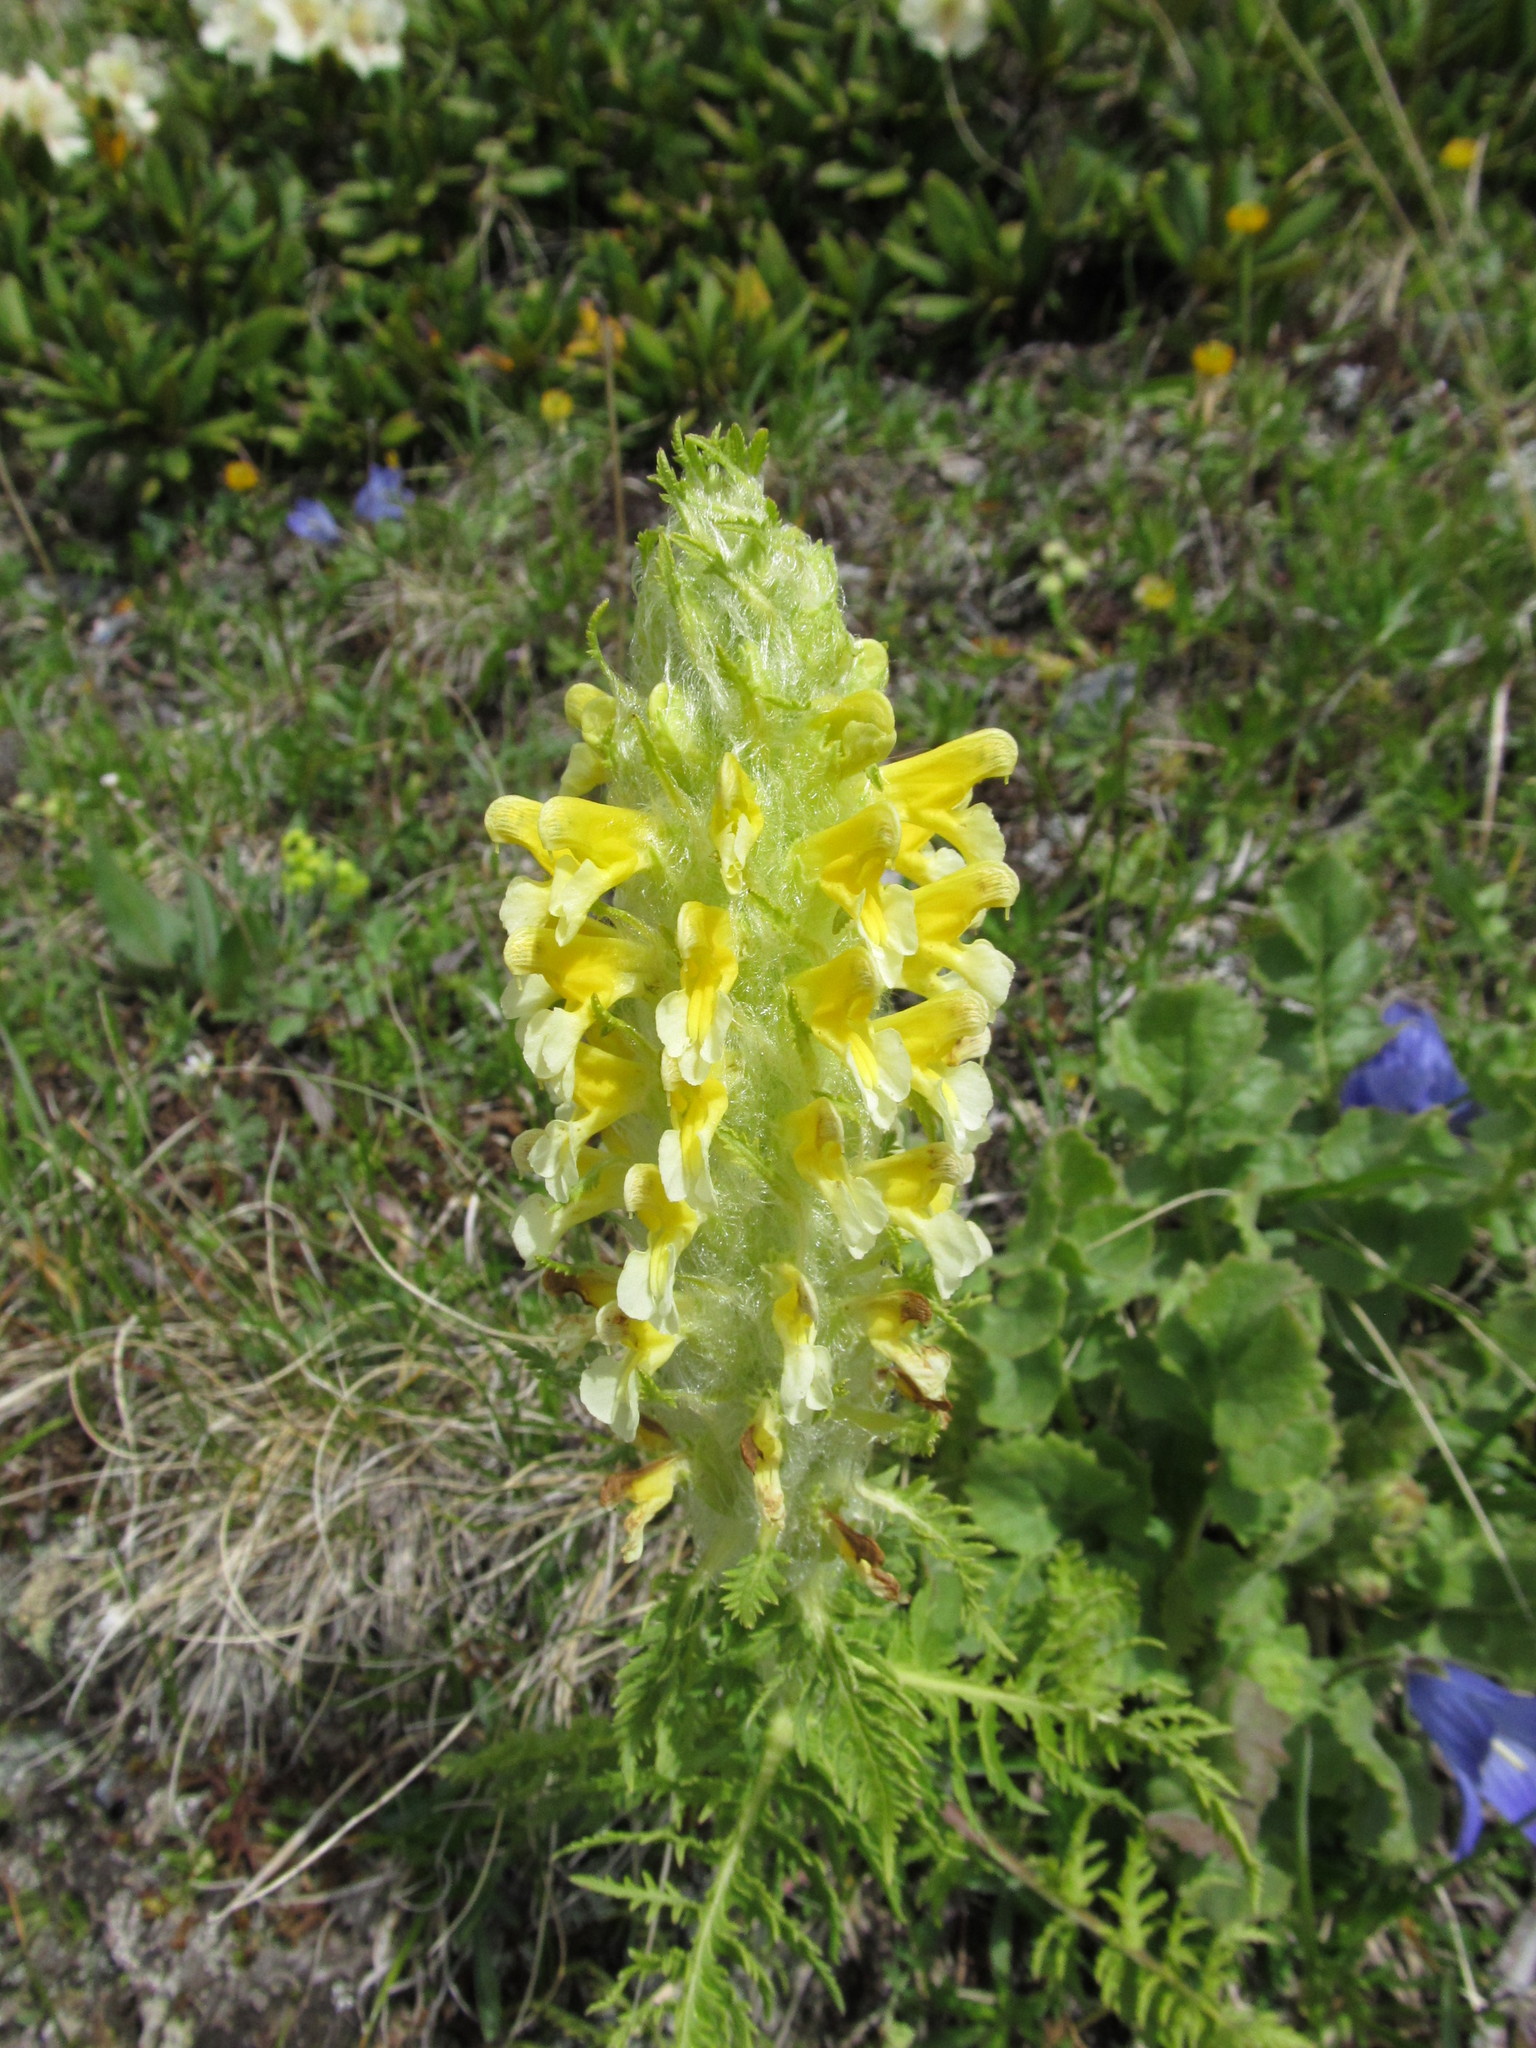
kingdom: Plantae
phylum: Tracheophyta
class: Magnoliopsida
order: Lamiales
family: Orobanchaceae
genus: Pedicularis
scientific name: Pedicularis condensata
